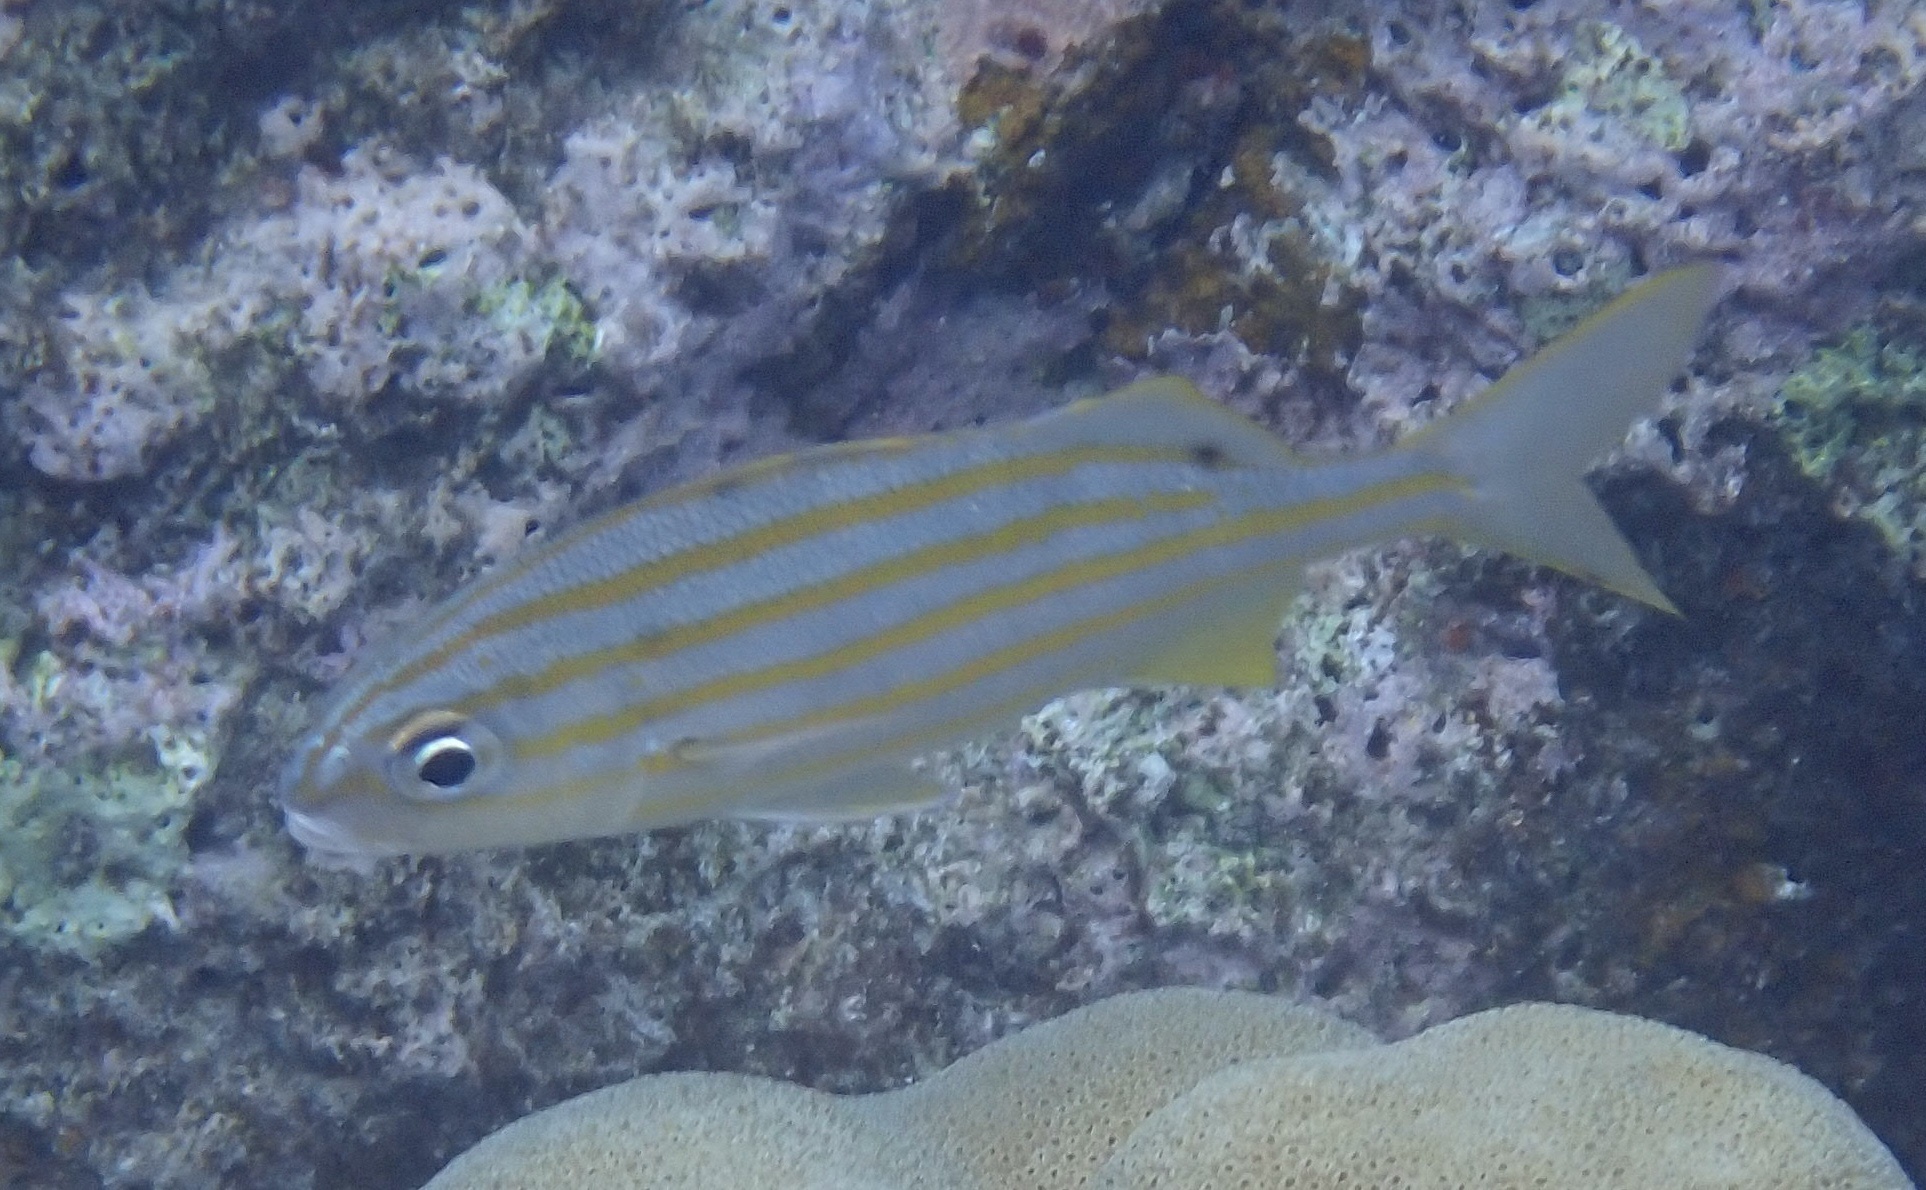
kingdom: Animalia
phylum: Chordata
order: Perciformes
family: Haemulidae
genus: Haemulon
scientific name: Haemulon chrysargyreum
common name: Smallmouth grunt
